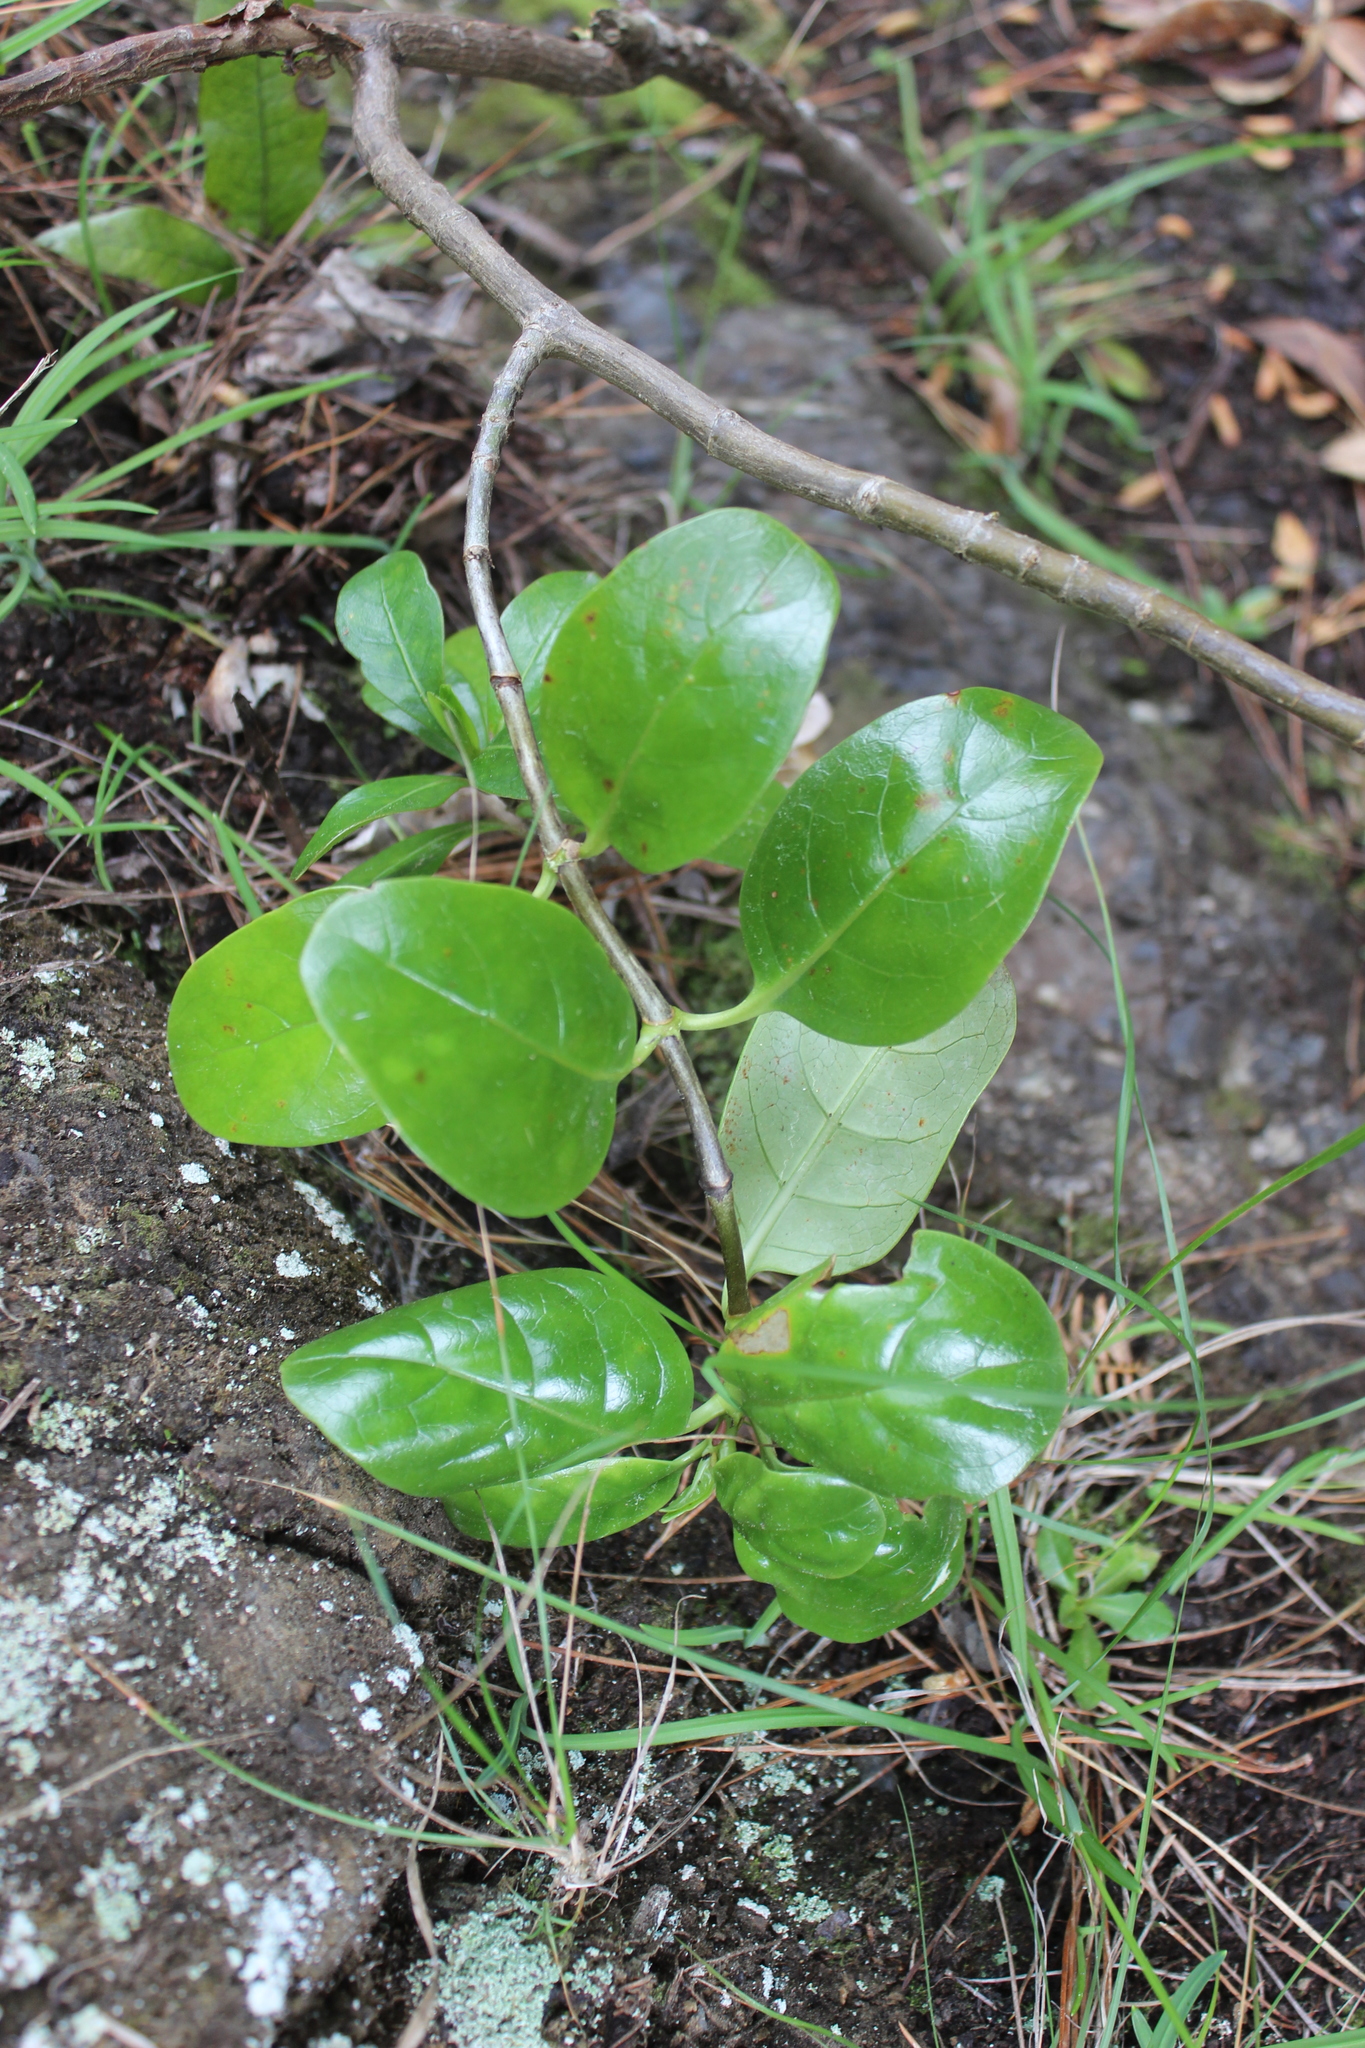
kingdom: Plantae
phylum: Tracheophyta
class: Magnoliopsida
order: Gentianales
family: Rubiaceae
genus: Coprosma
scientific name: Coprosma repens
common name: Tree bedstraw
